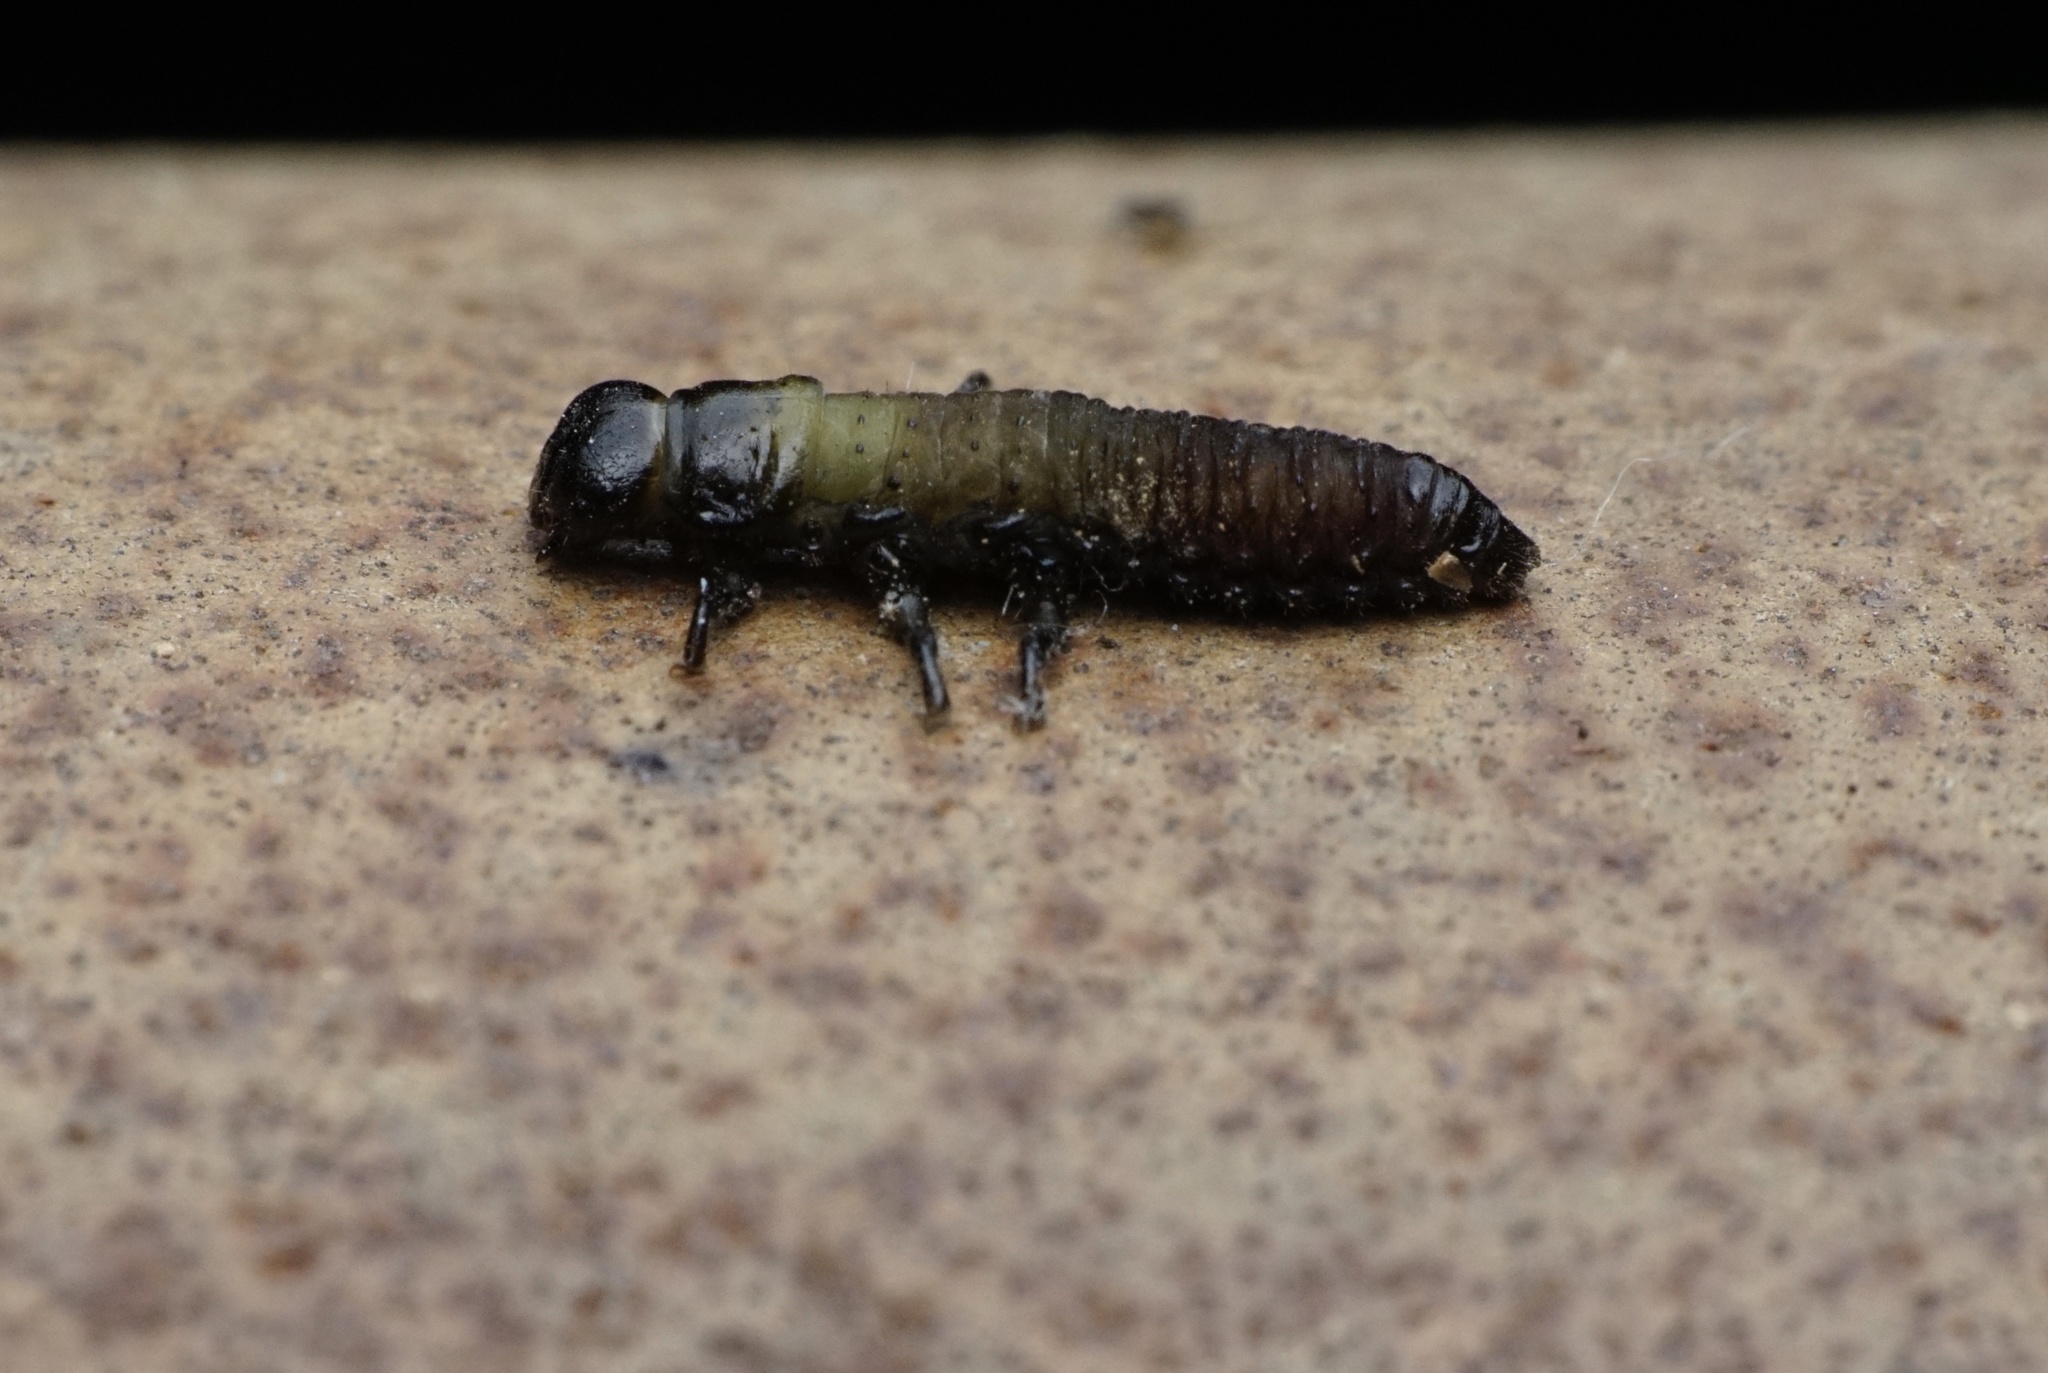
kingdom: Animalia
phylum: Arthropoda
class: Insecta
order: Coleoptera
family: Chrysomelidae
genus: Trachymela
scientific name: Trachymela sloanei
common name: Australian tortoise beetle
